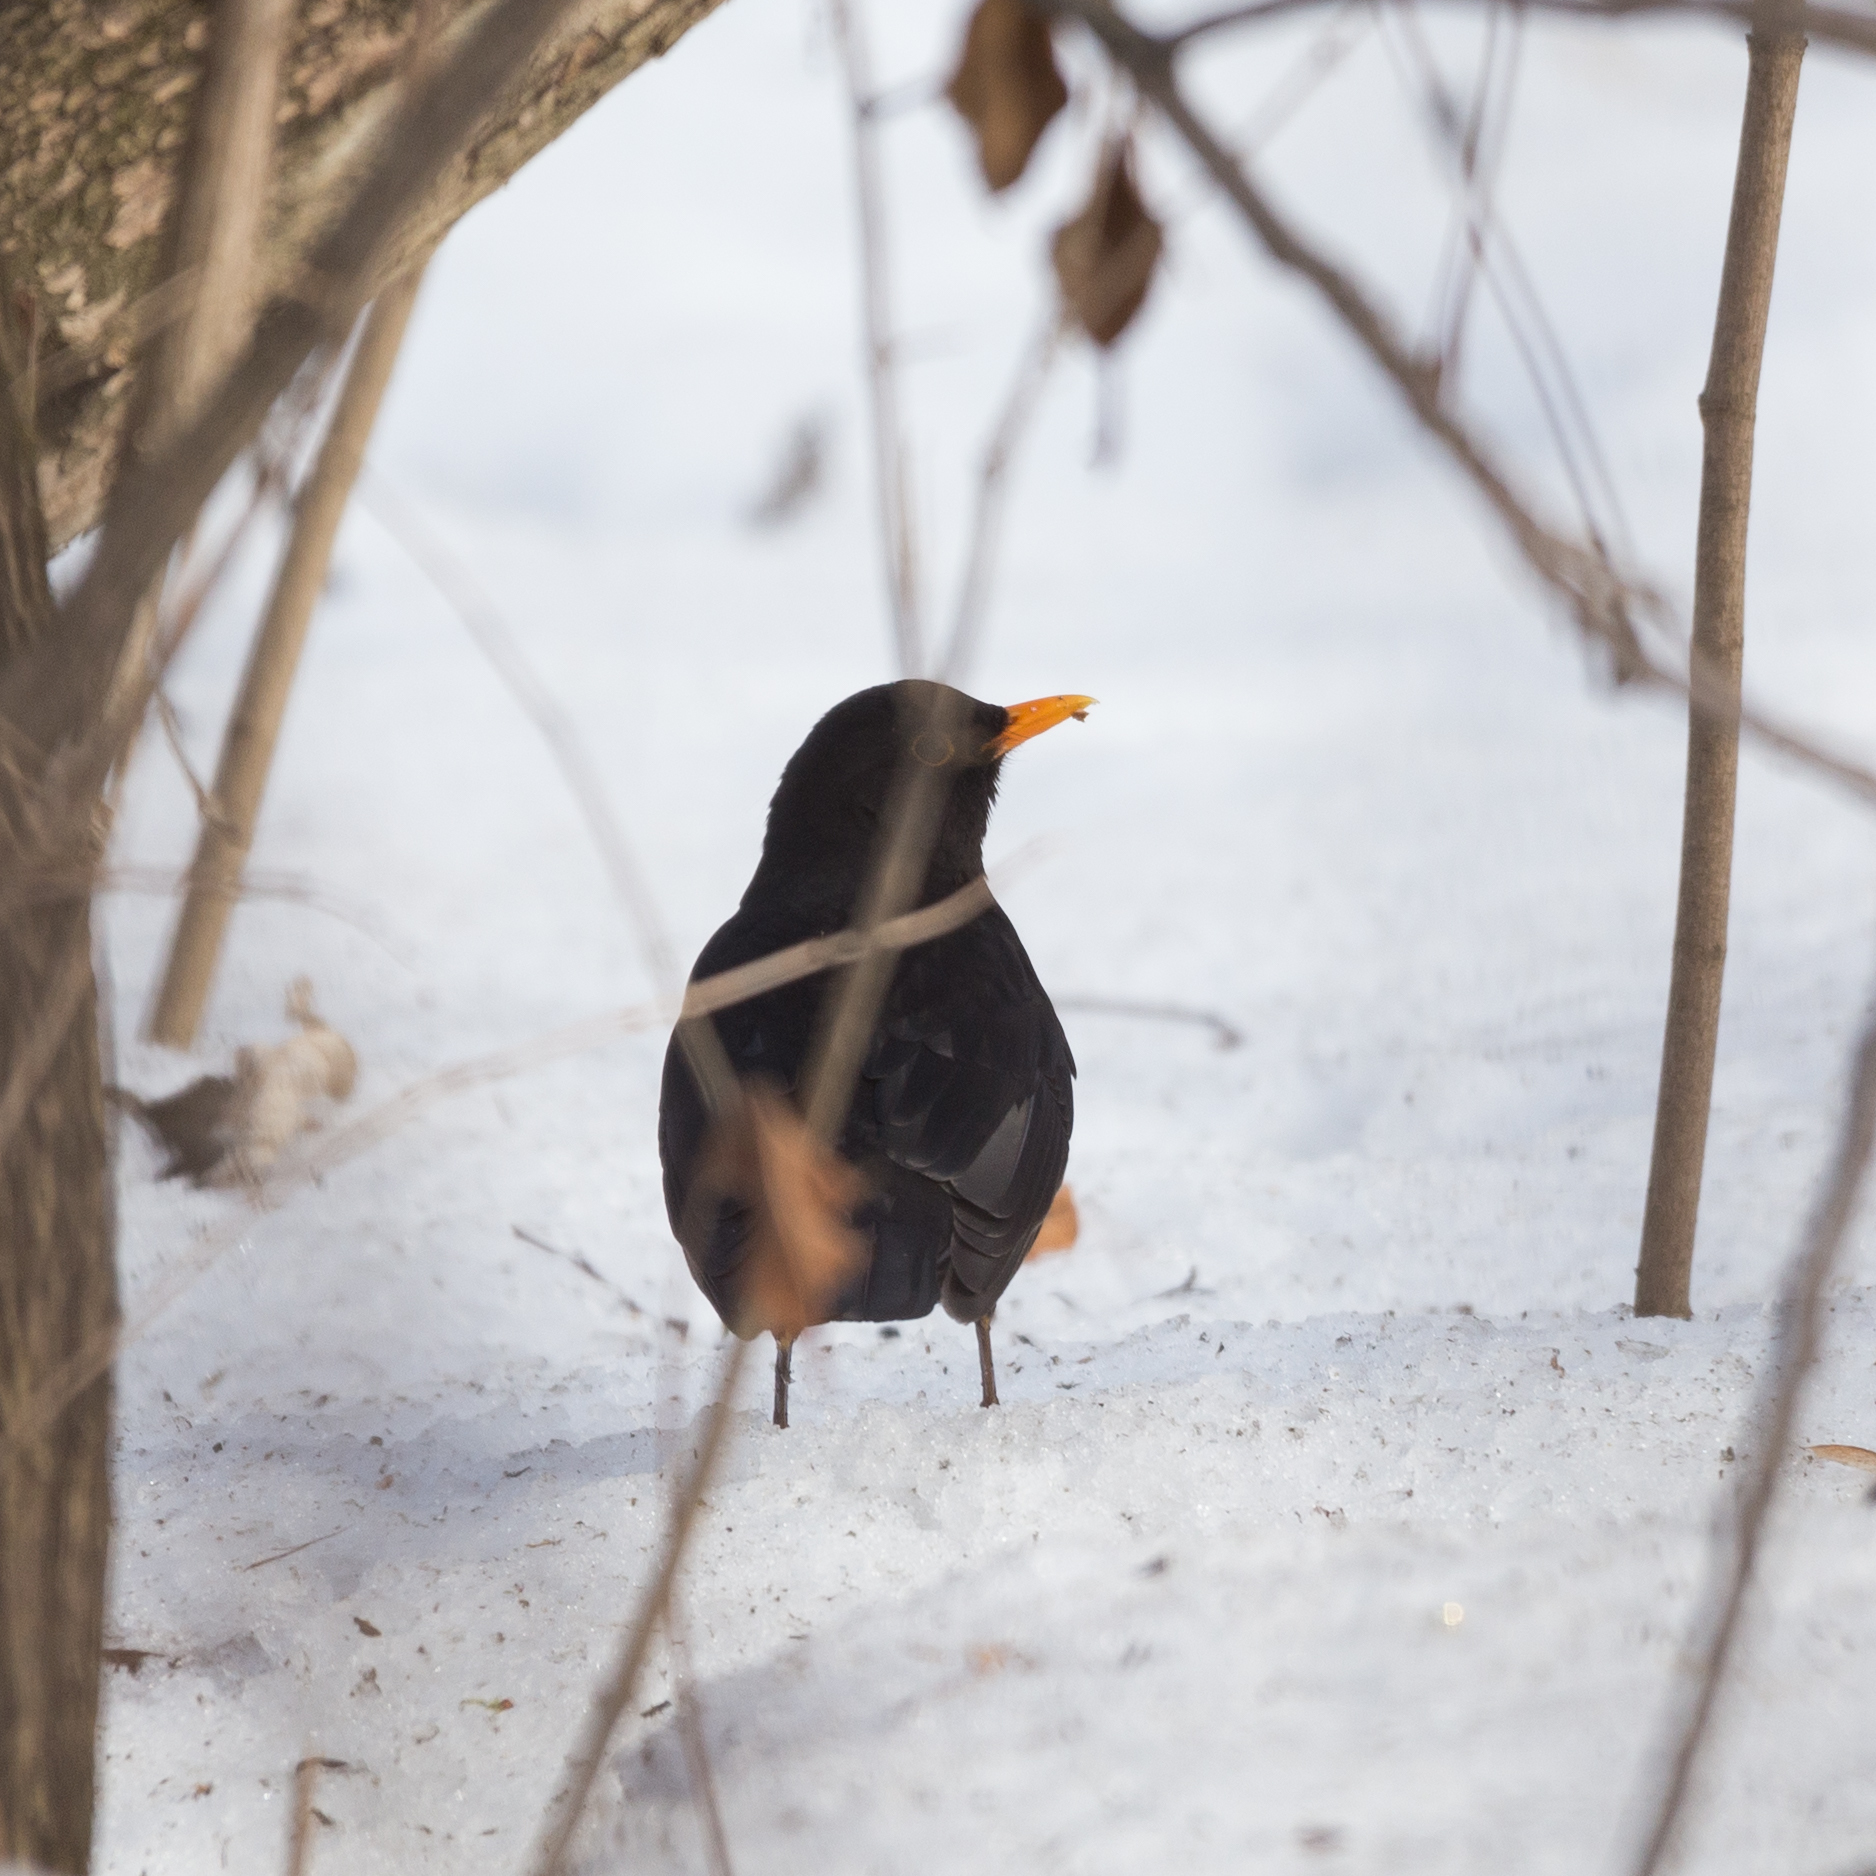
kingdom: Animalia
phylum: Chordata
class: Aves
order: Passeriformes
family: Turdidae
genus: Turdus
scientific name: Turdus merula
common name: Common blackbird
